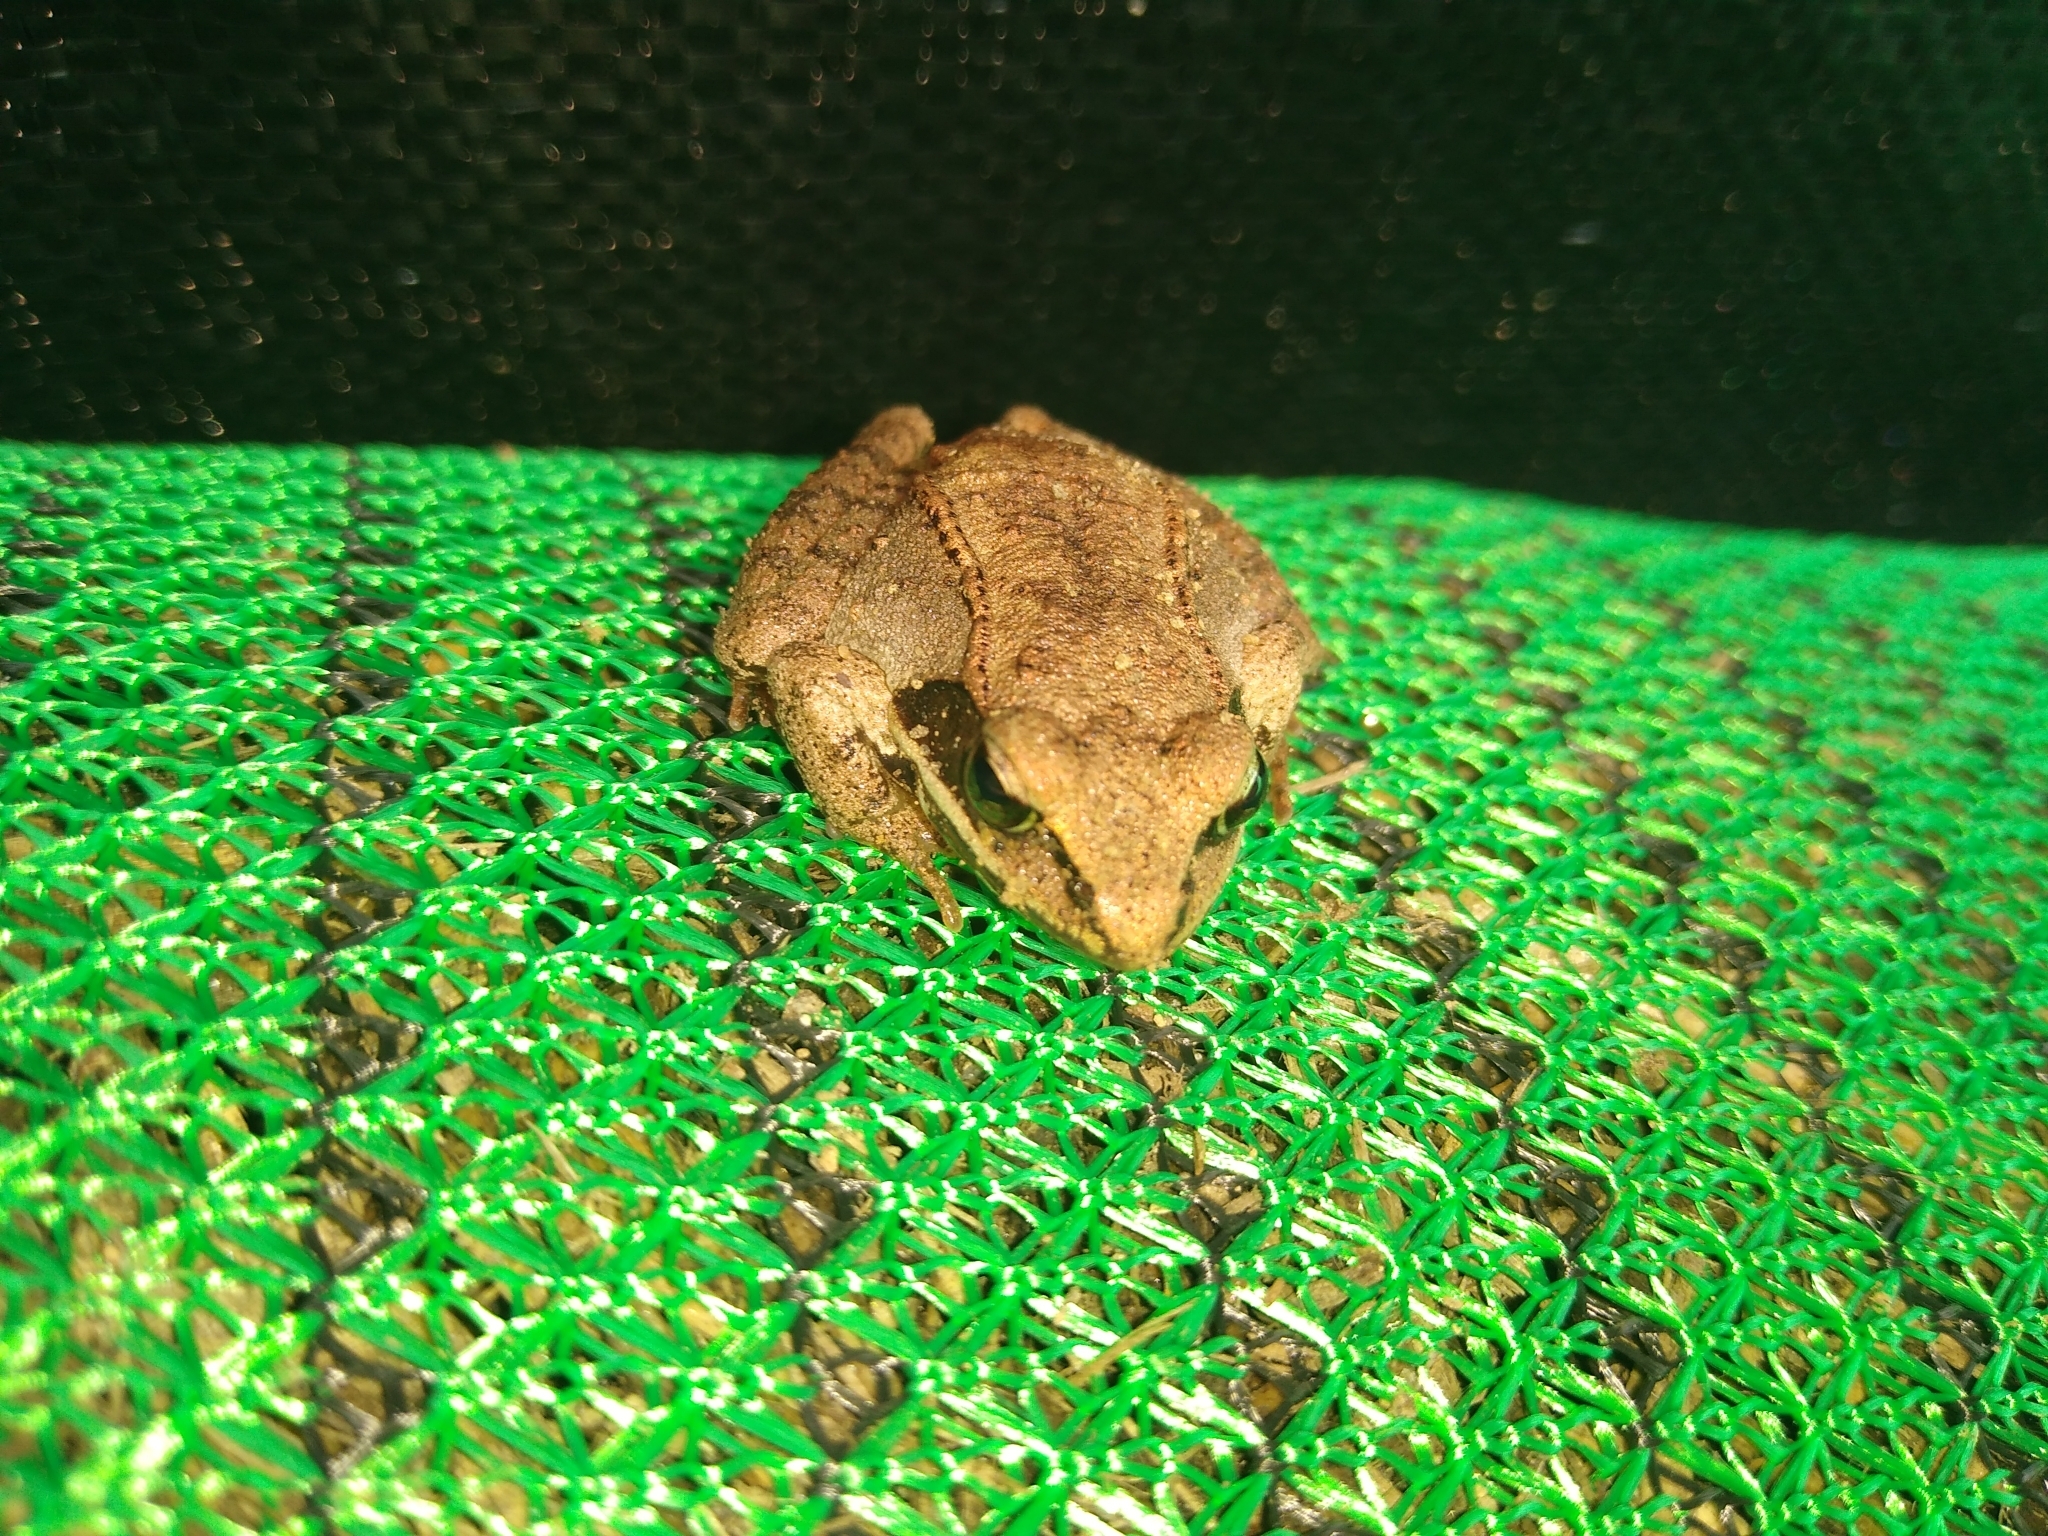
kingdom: Animalia
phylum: Chordata
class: Amphibia
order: Anura
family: Ranidae
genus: Lithobates
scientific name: Lithobates sylvaticus
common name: Wood frog
